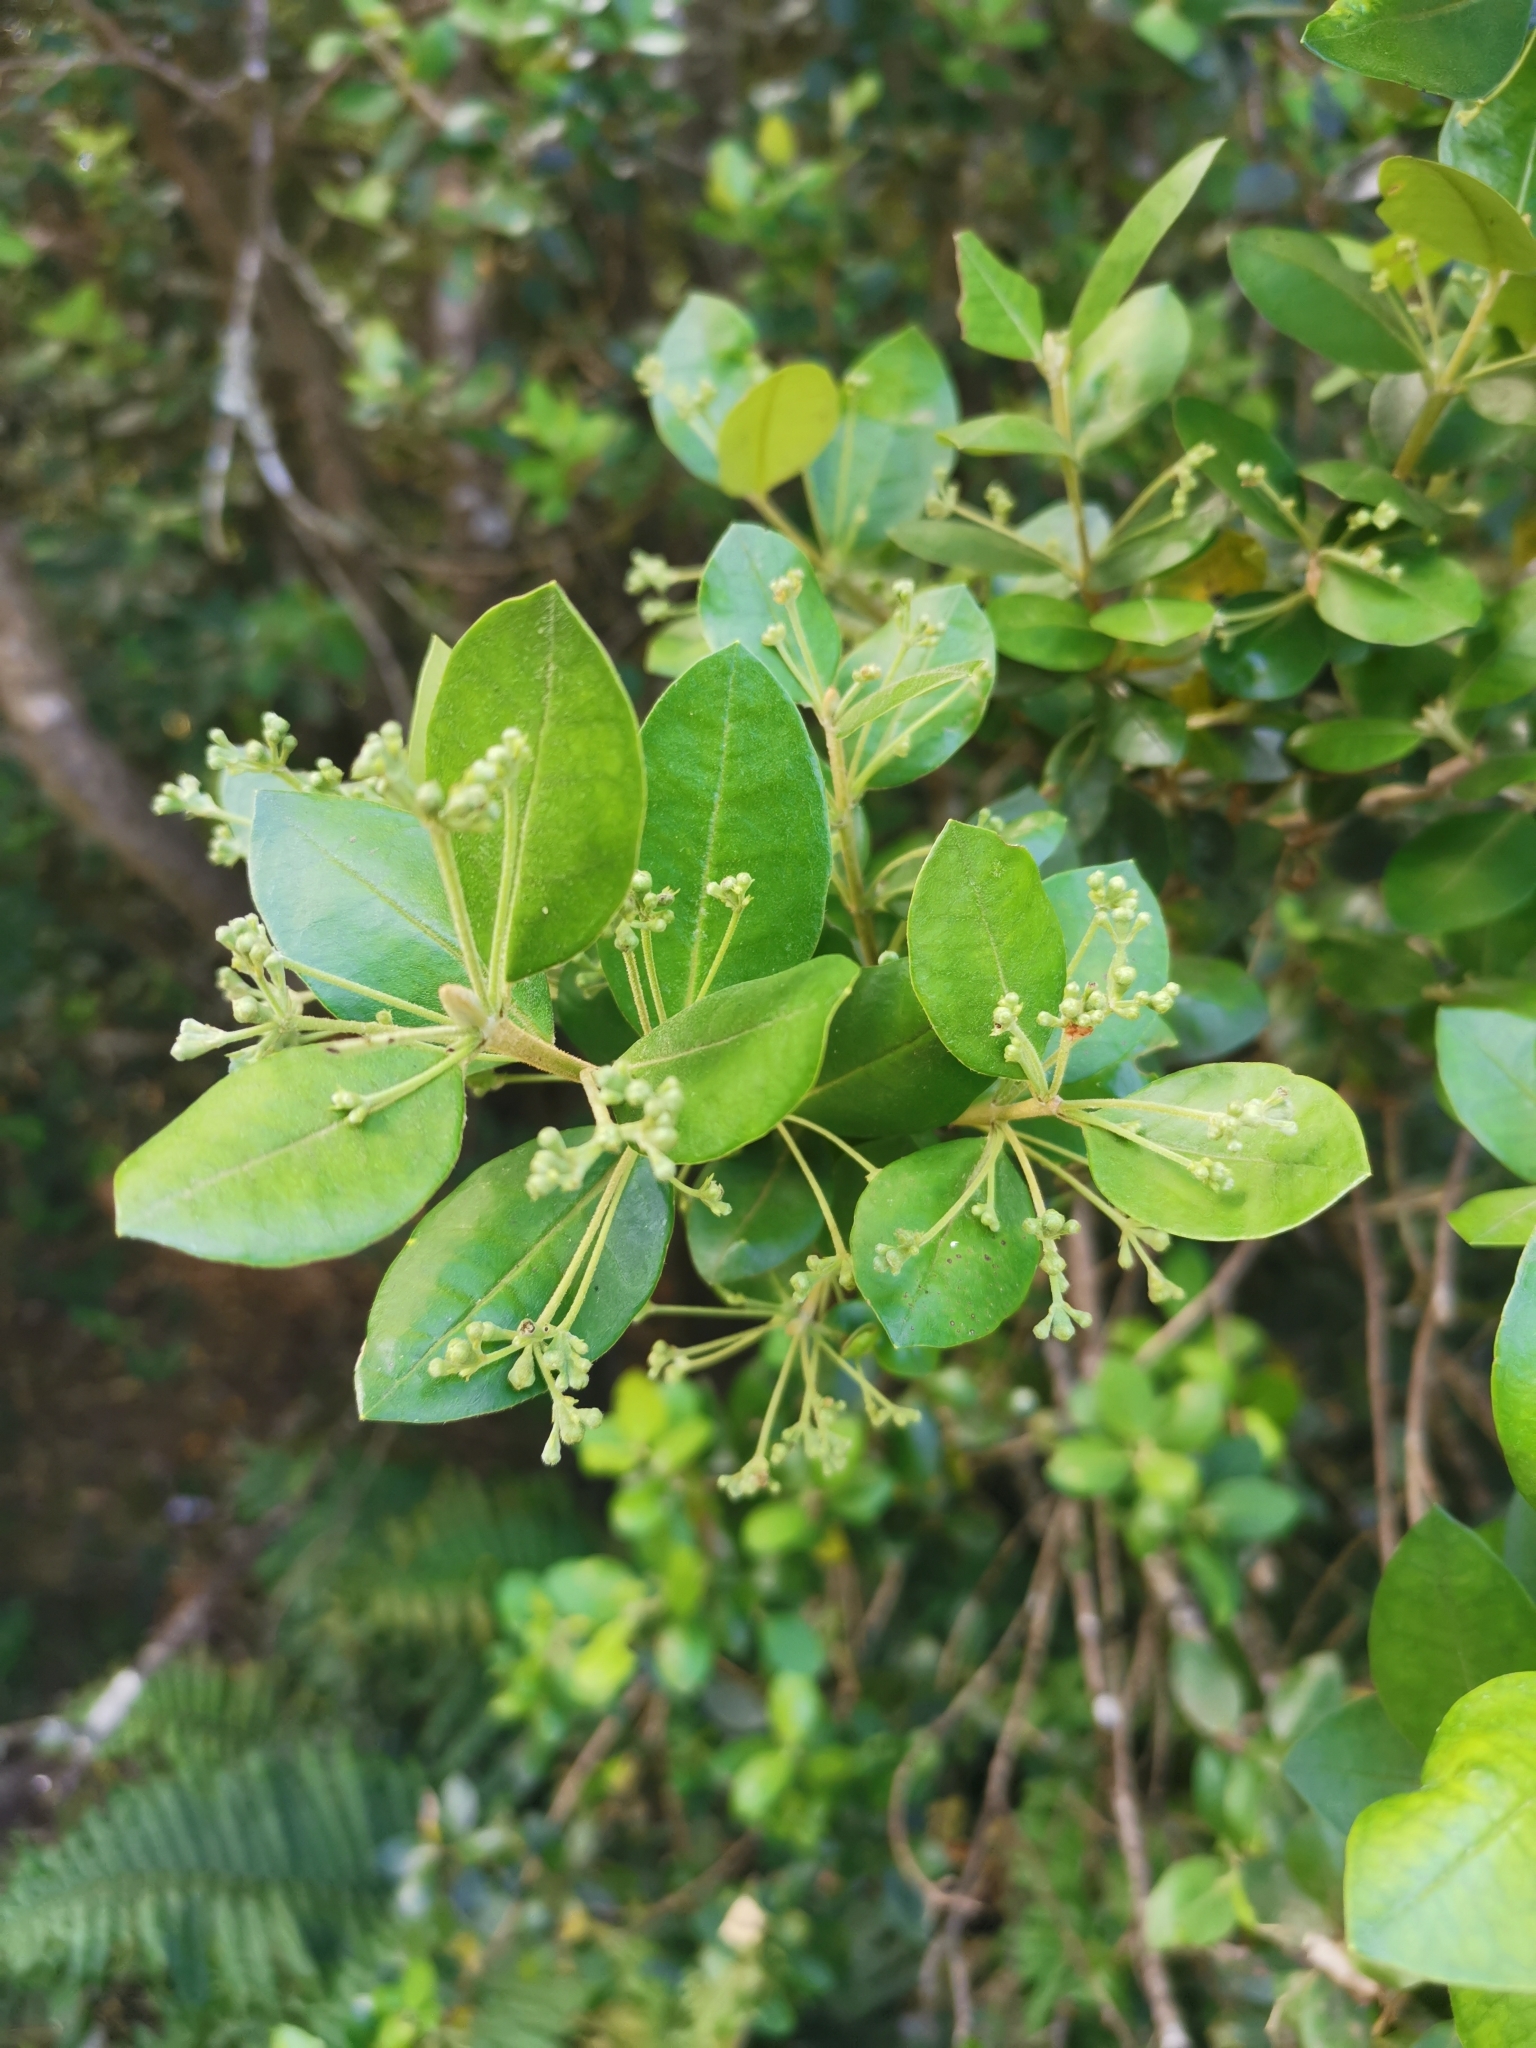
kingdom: Plantae
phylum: Tracheophyta
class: Magnoliopsida
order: Myrtales
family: Myrtaceae
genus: Myrceugenia
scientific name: Myrceugenia exsucca
